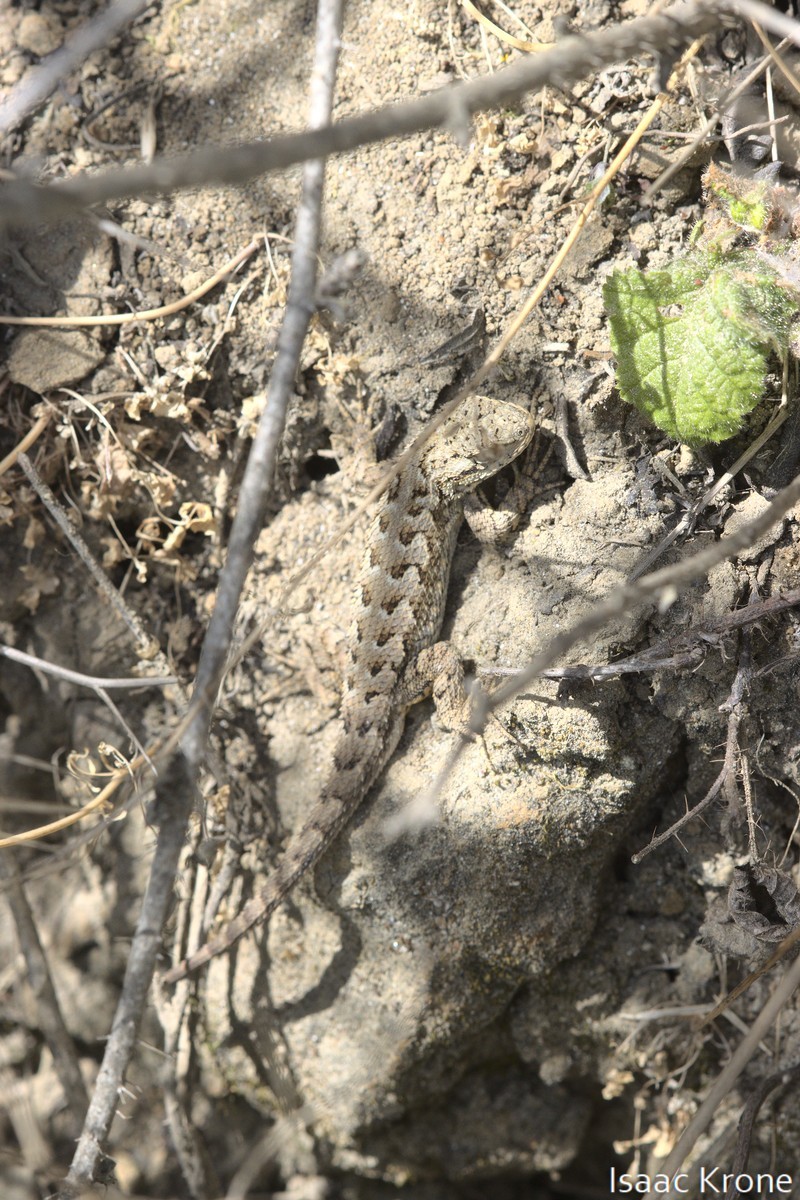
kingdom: Animalia
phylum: Chordata
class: Squamata
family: Phrynosomatidae
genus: Sceloporus
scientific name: Sceloporus occidentalis
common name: Western fence lizard
